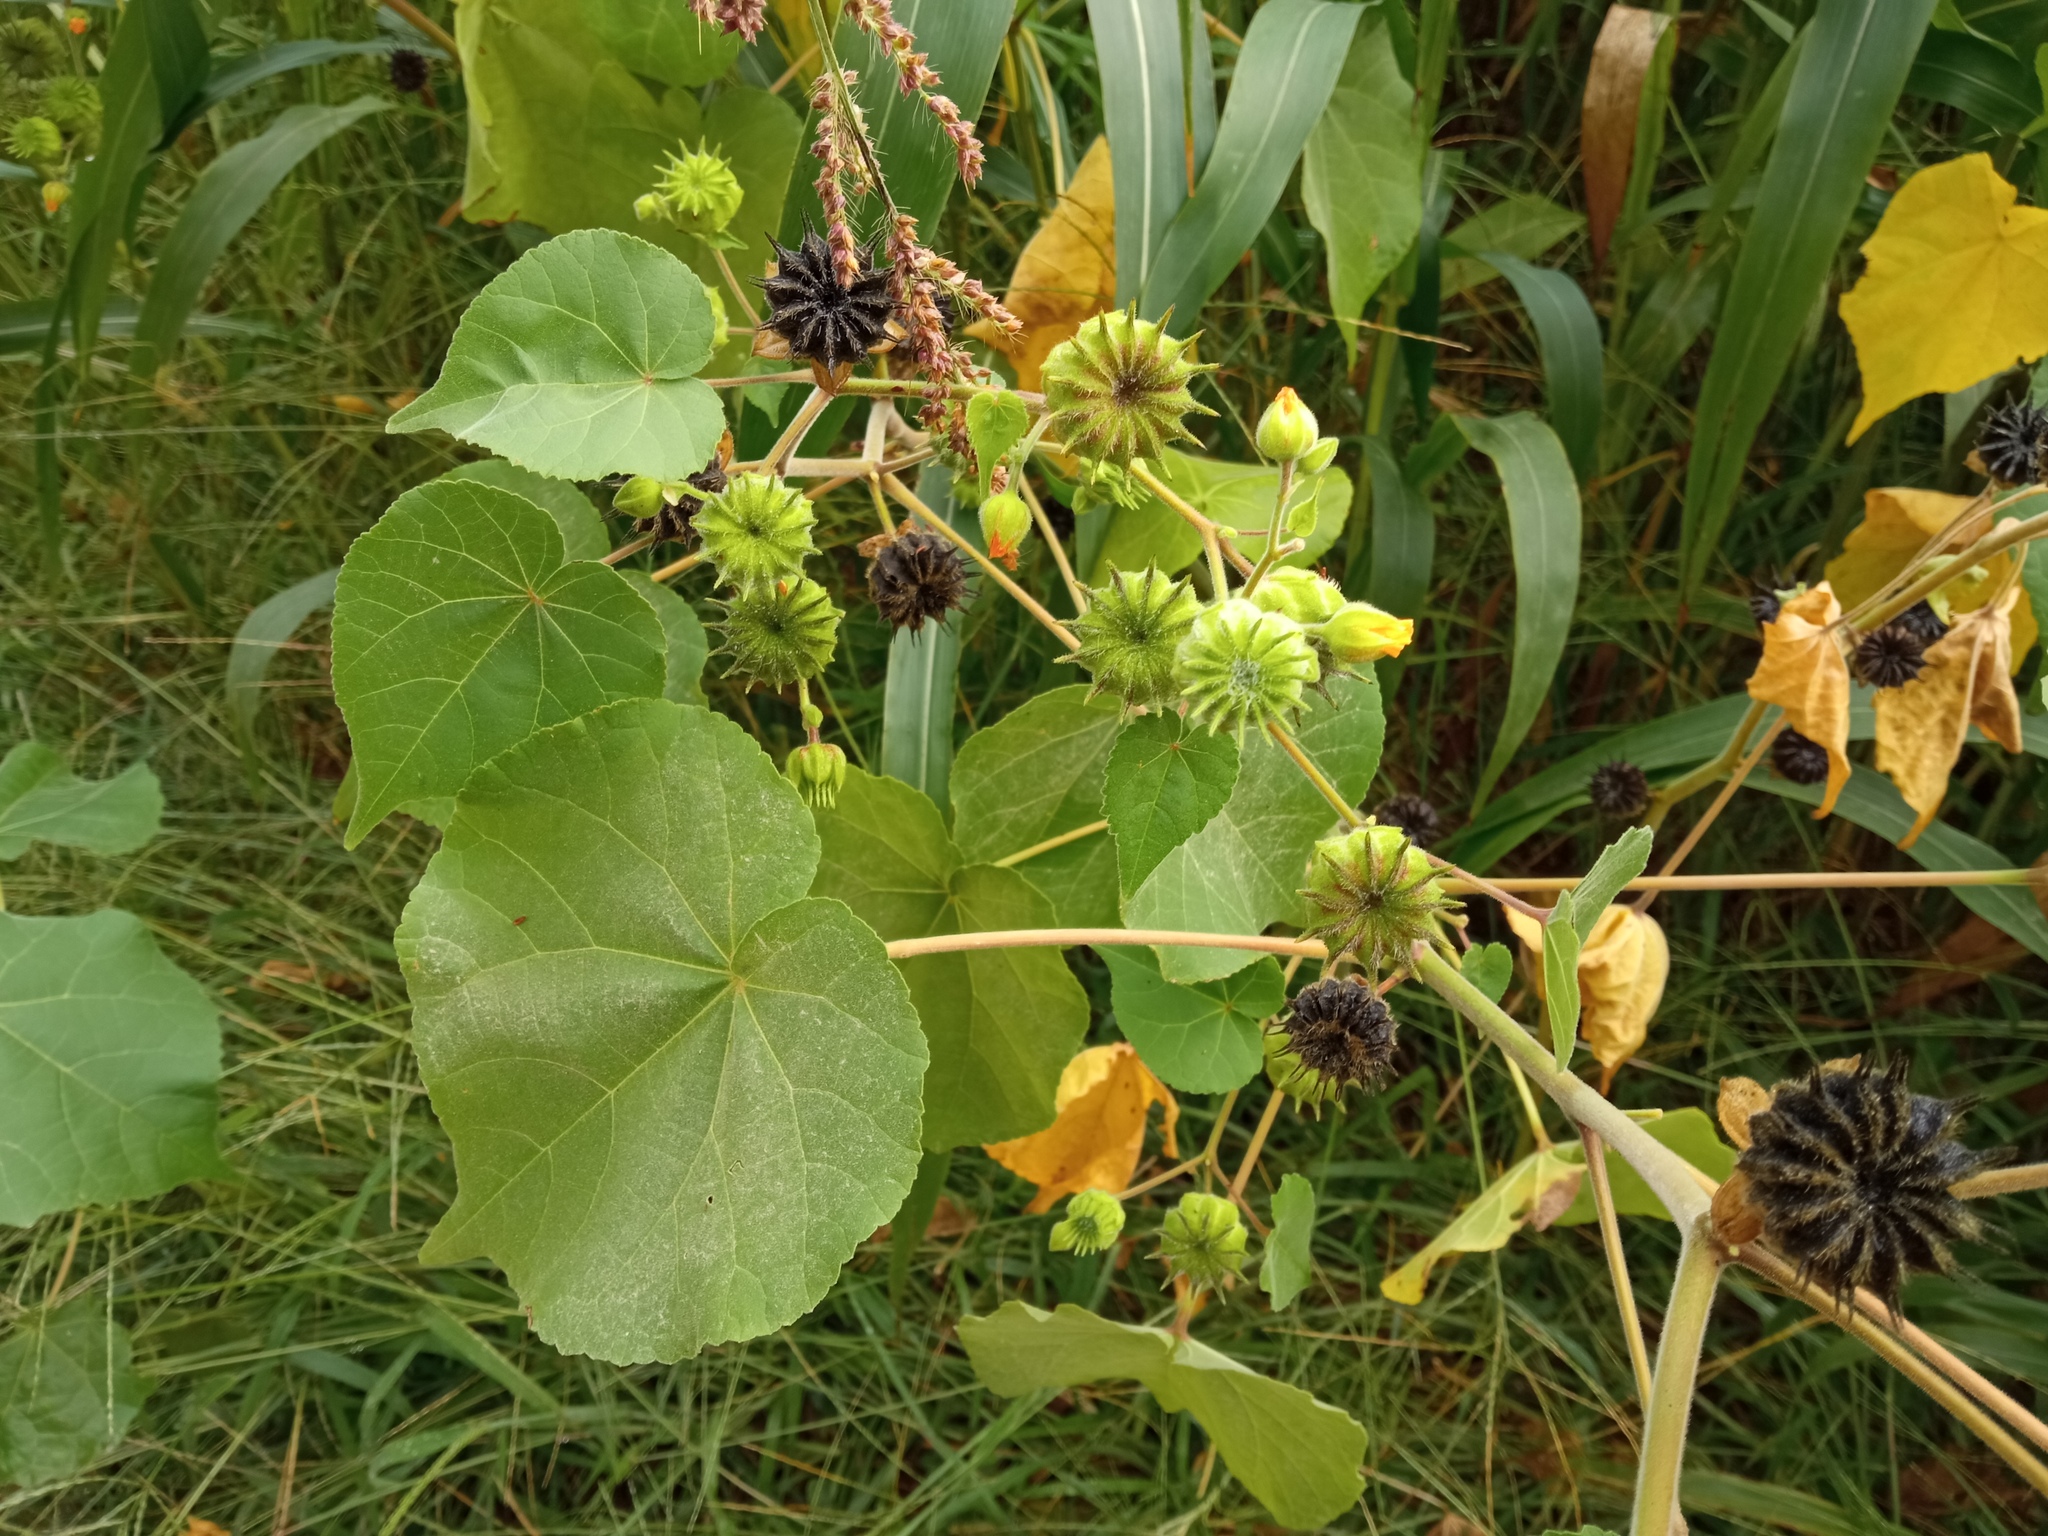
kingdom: Plantae
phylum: Tracheophyta
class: Magnoliopsida
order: Malvales
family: Malvaceae
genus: Abutilon
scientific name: Abutilon theophrasti
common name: Velvetleaf
